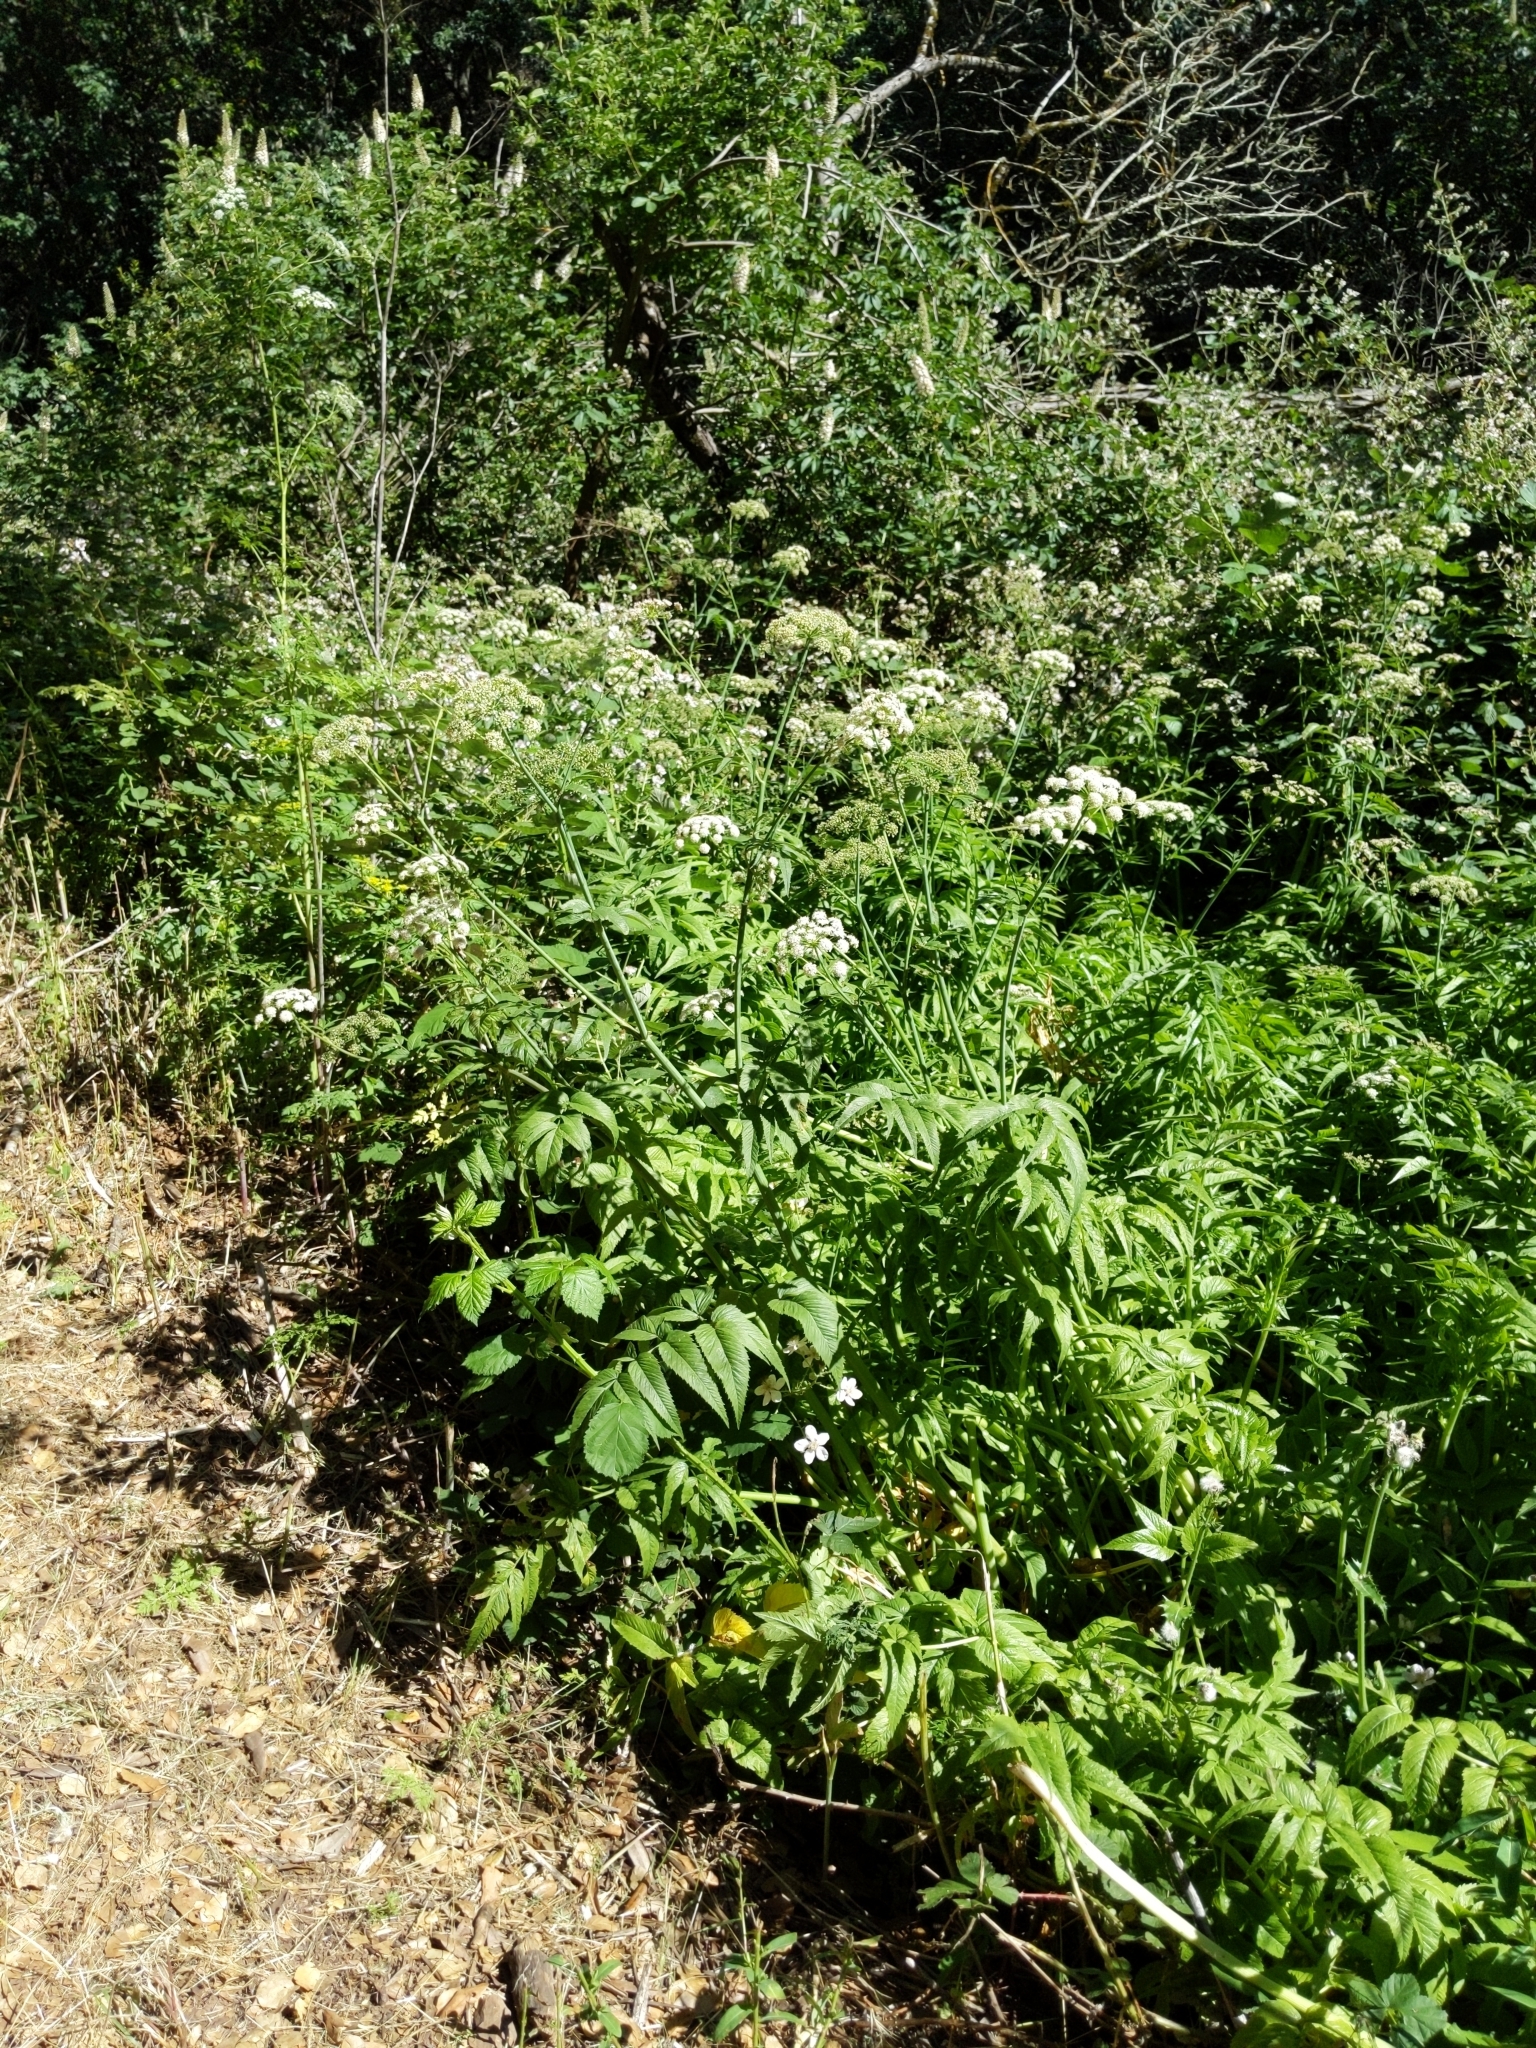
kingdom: Plantae
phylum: Tracheophyta
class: Magnoliopsida
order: Apiales
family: Apiaceae
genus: Cicuta
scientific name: Cicuta douglasii
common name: Western water-hemlock
